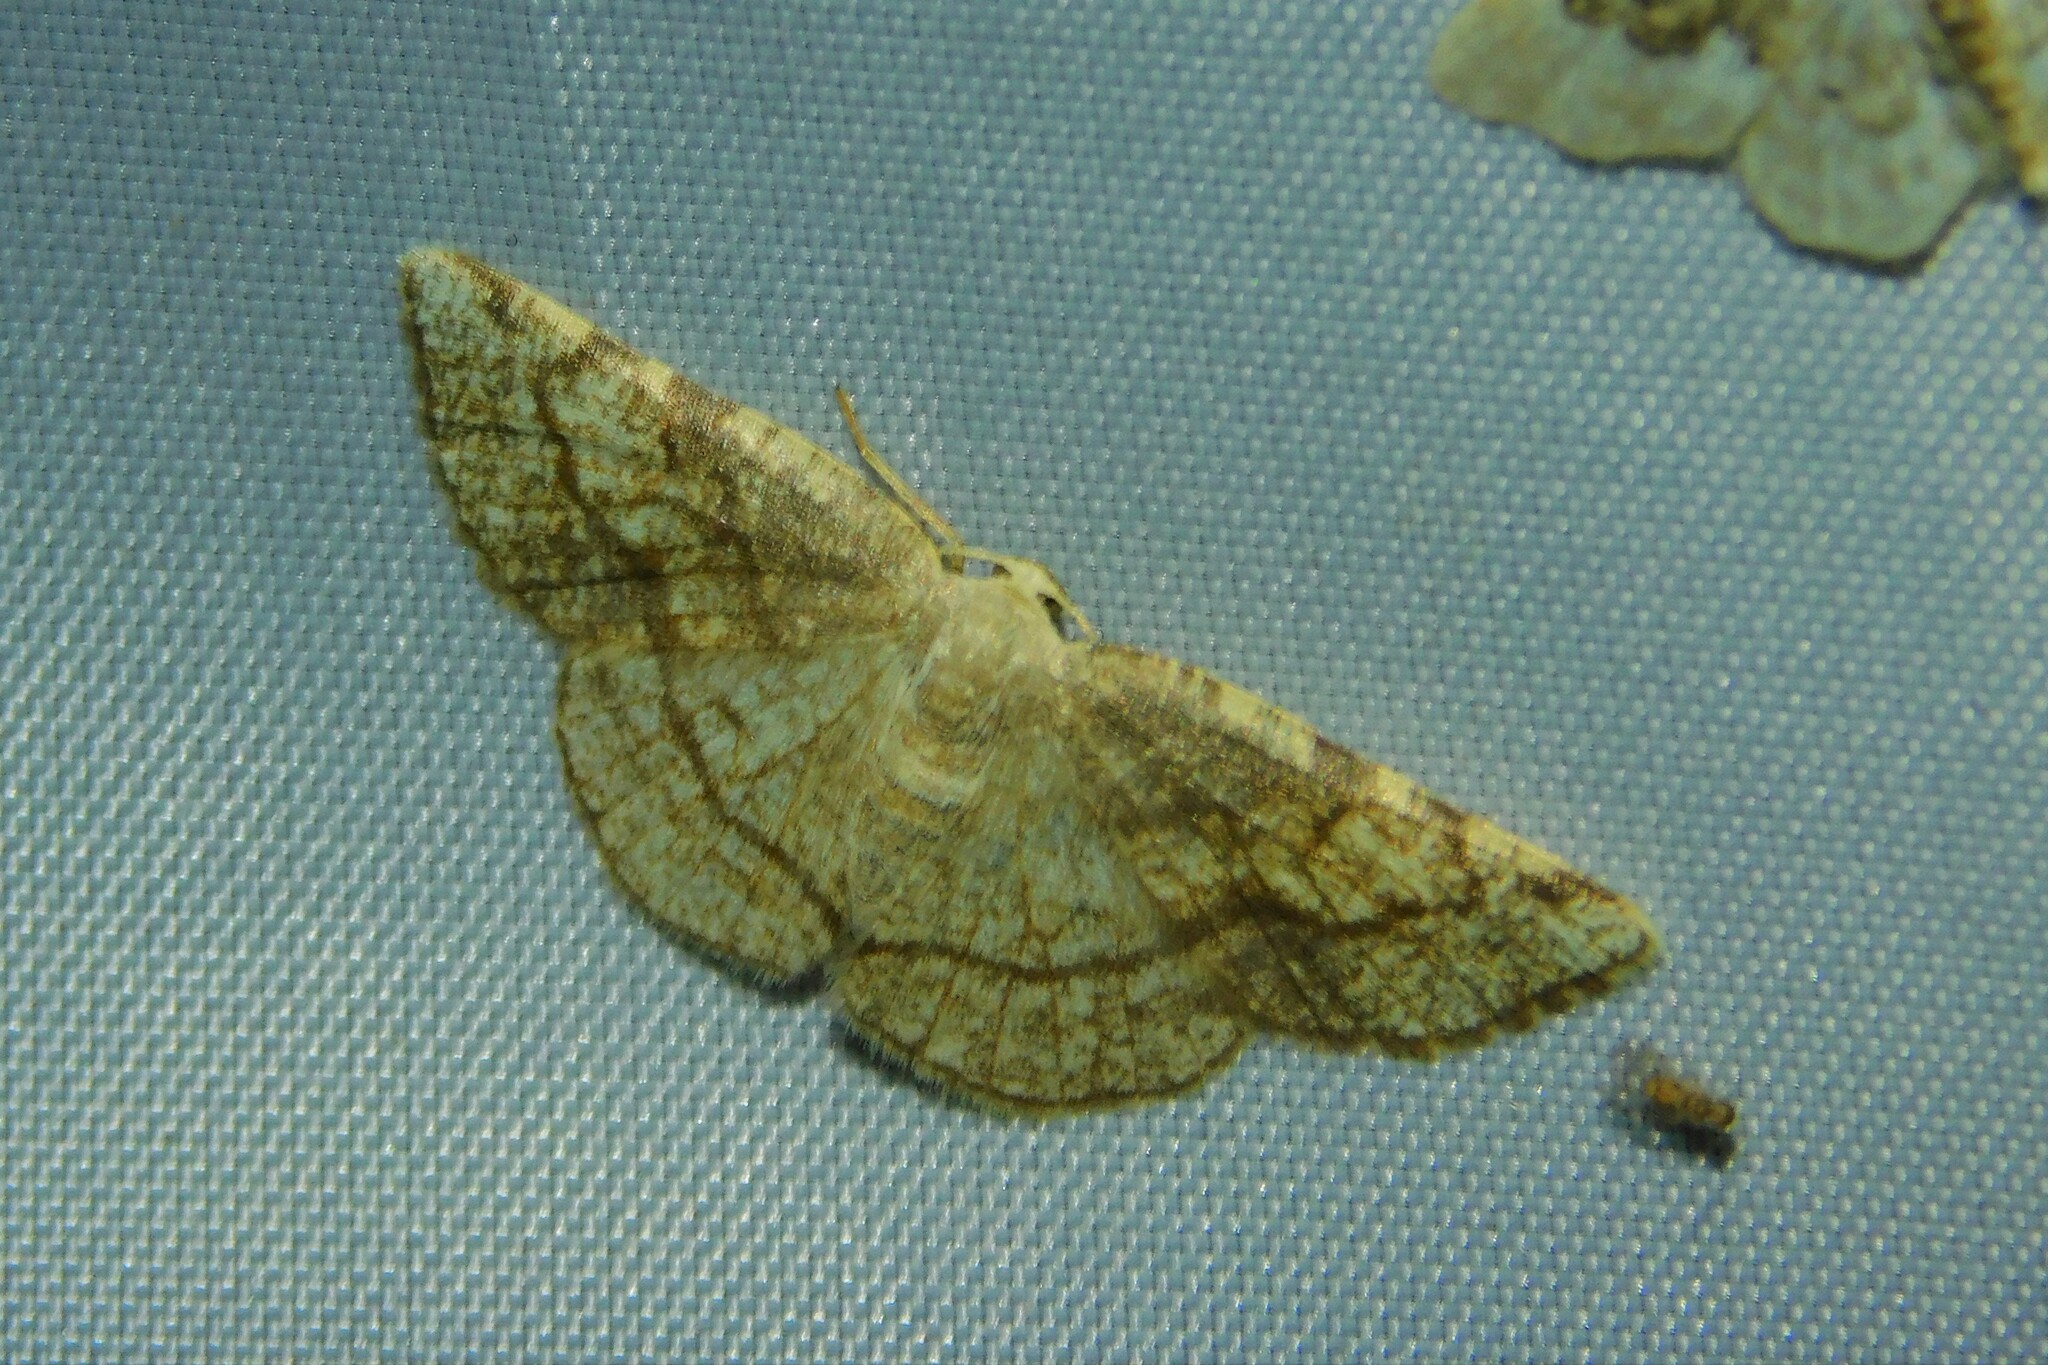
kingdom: Animalia
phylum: Arthropoda
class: Insecta
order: Lepidoptera
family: Geometridae
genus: Stegania
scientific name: Stegania trimaculata
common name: Dorset cream wave
